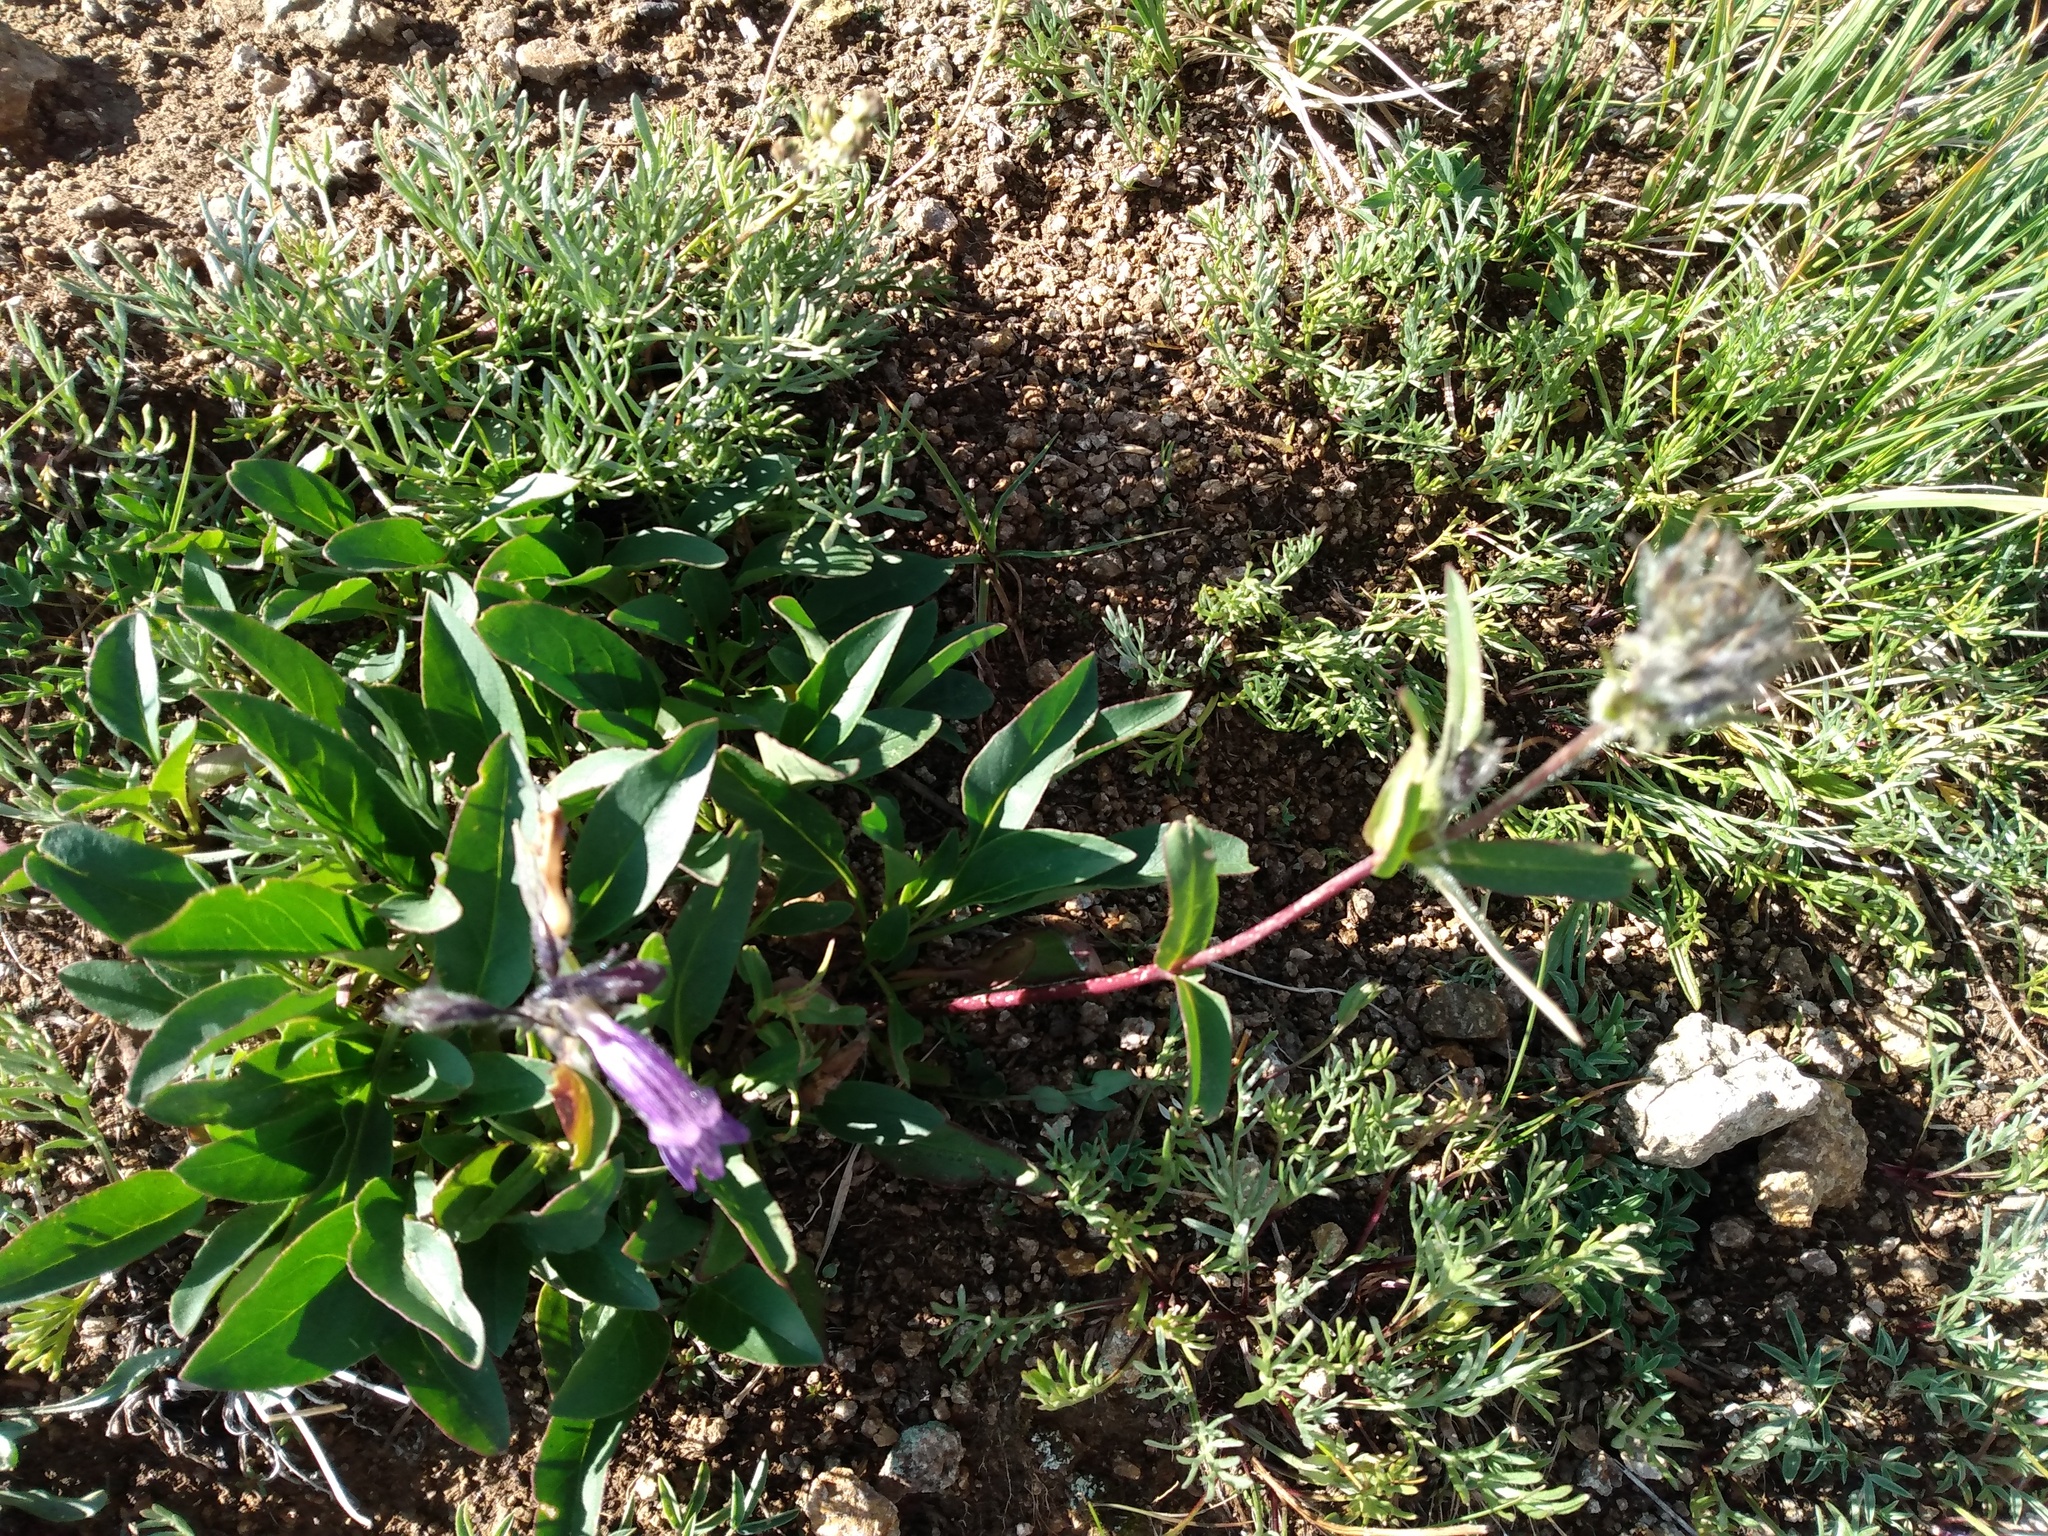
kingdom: Plantae
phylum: Tracheophyta
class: Magnoliopsida
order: Lamiales
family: Plantaginaceae
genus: Penstemon
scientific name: Penstemon whippleanus
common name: Whipple's penstemon
